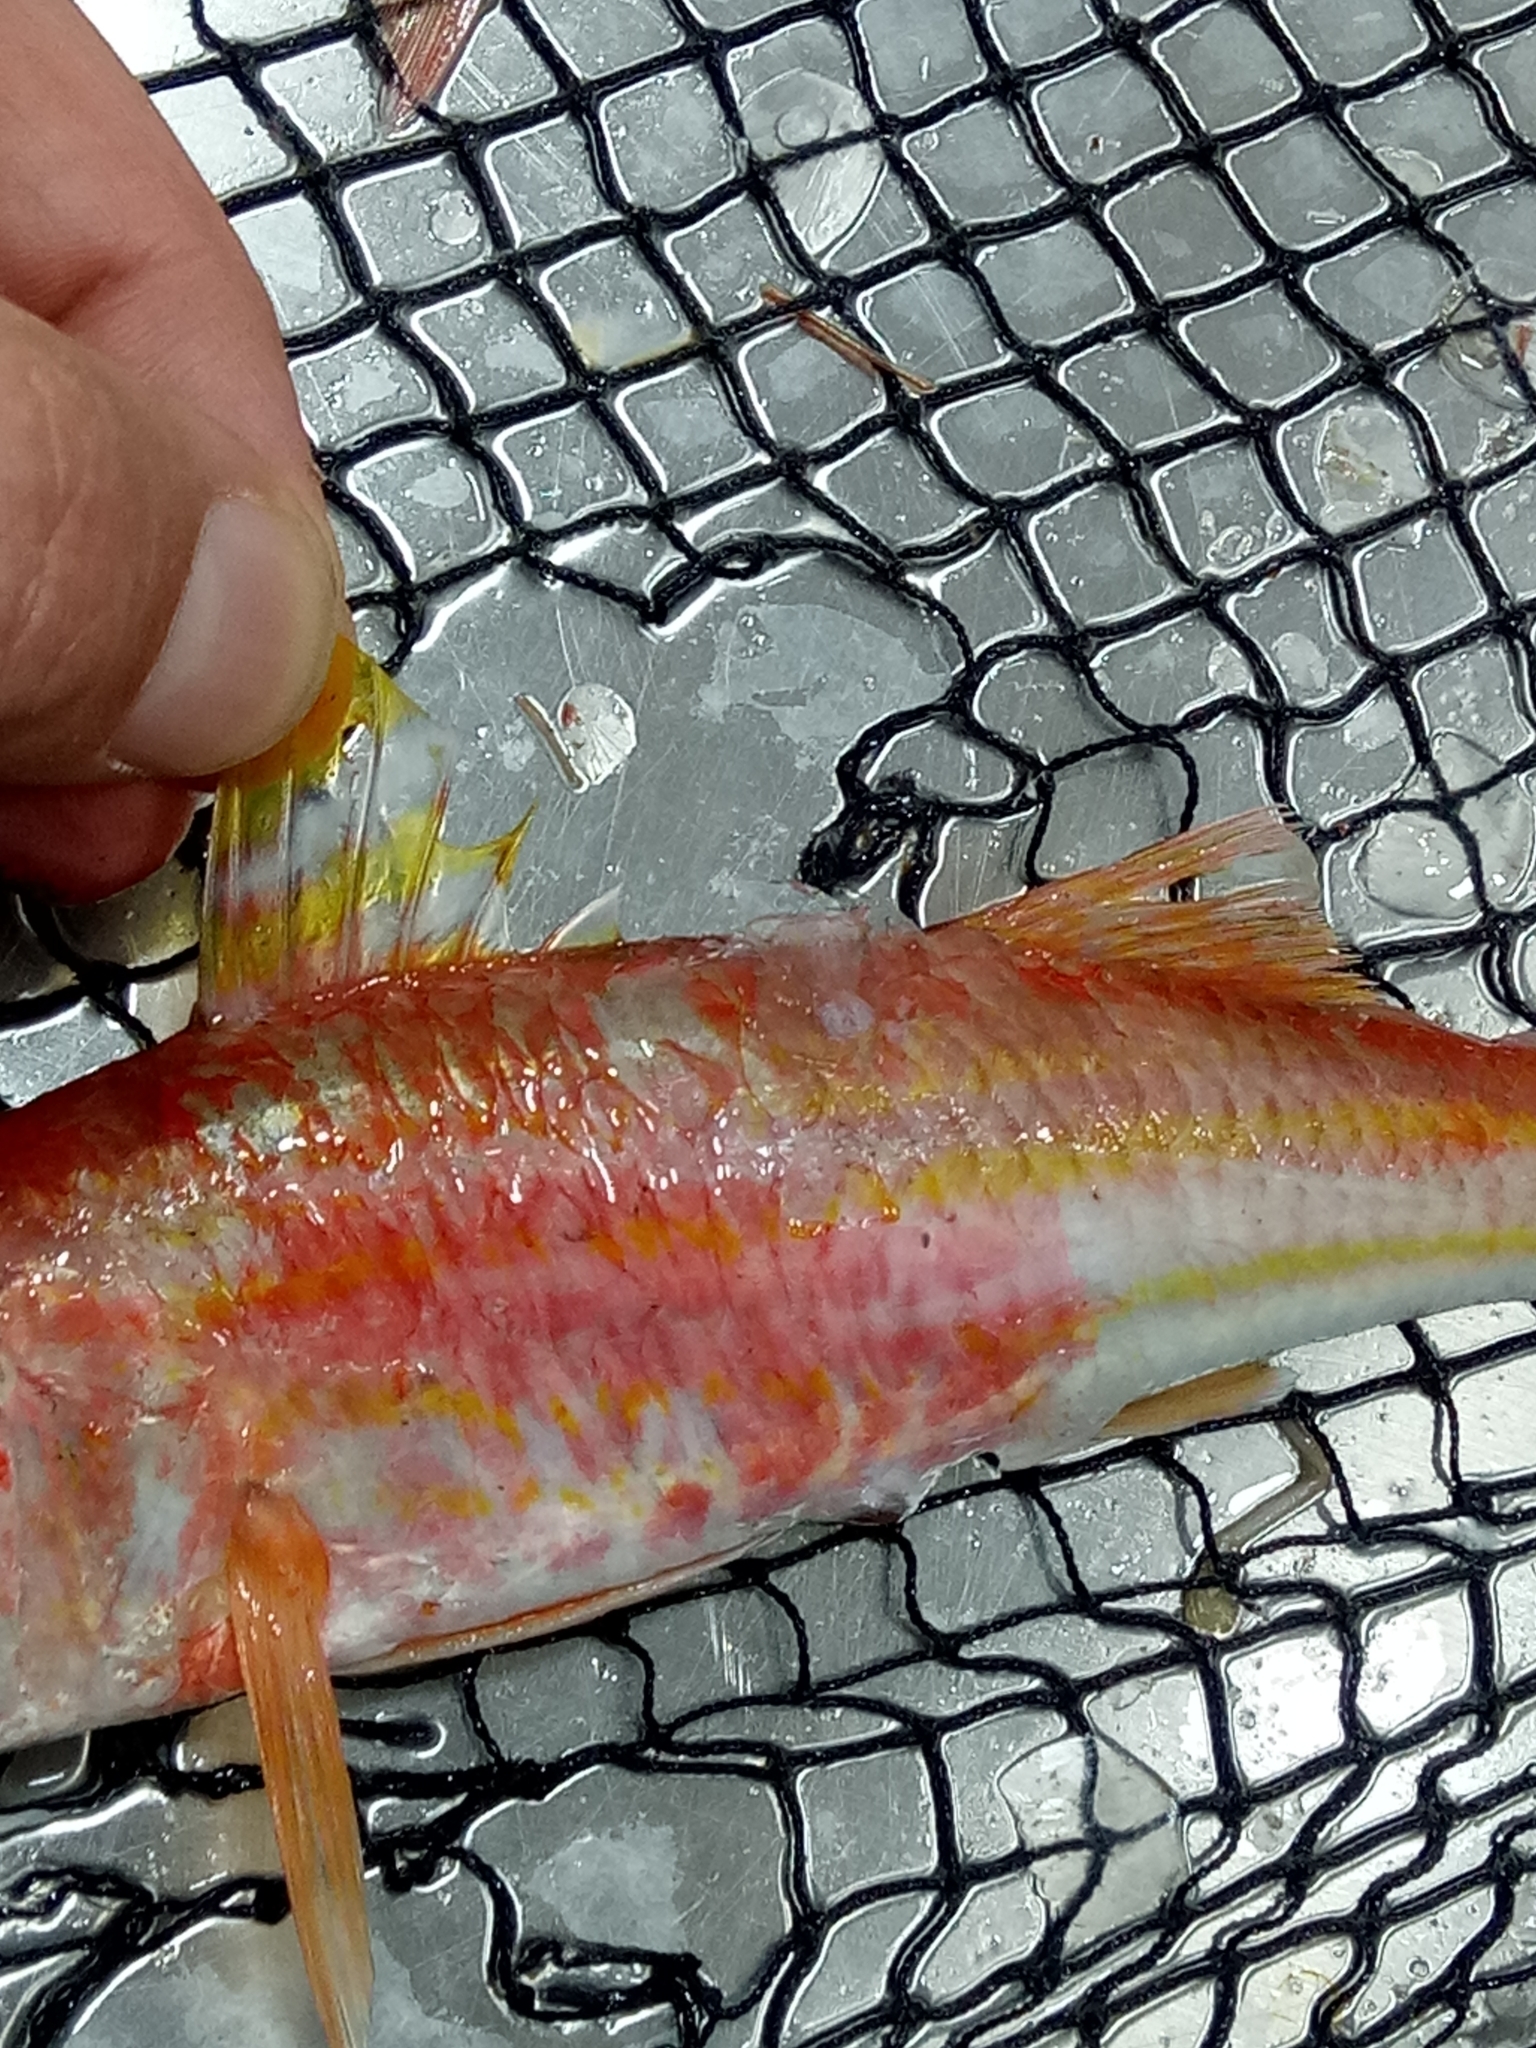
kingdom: Animalia
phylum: Chordata
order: Perciformes
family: Mullidae
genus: Mullus
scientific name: Mullus surmuletus
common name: Red mullet
